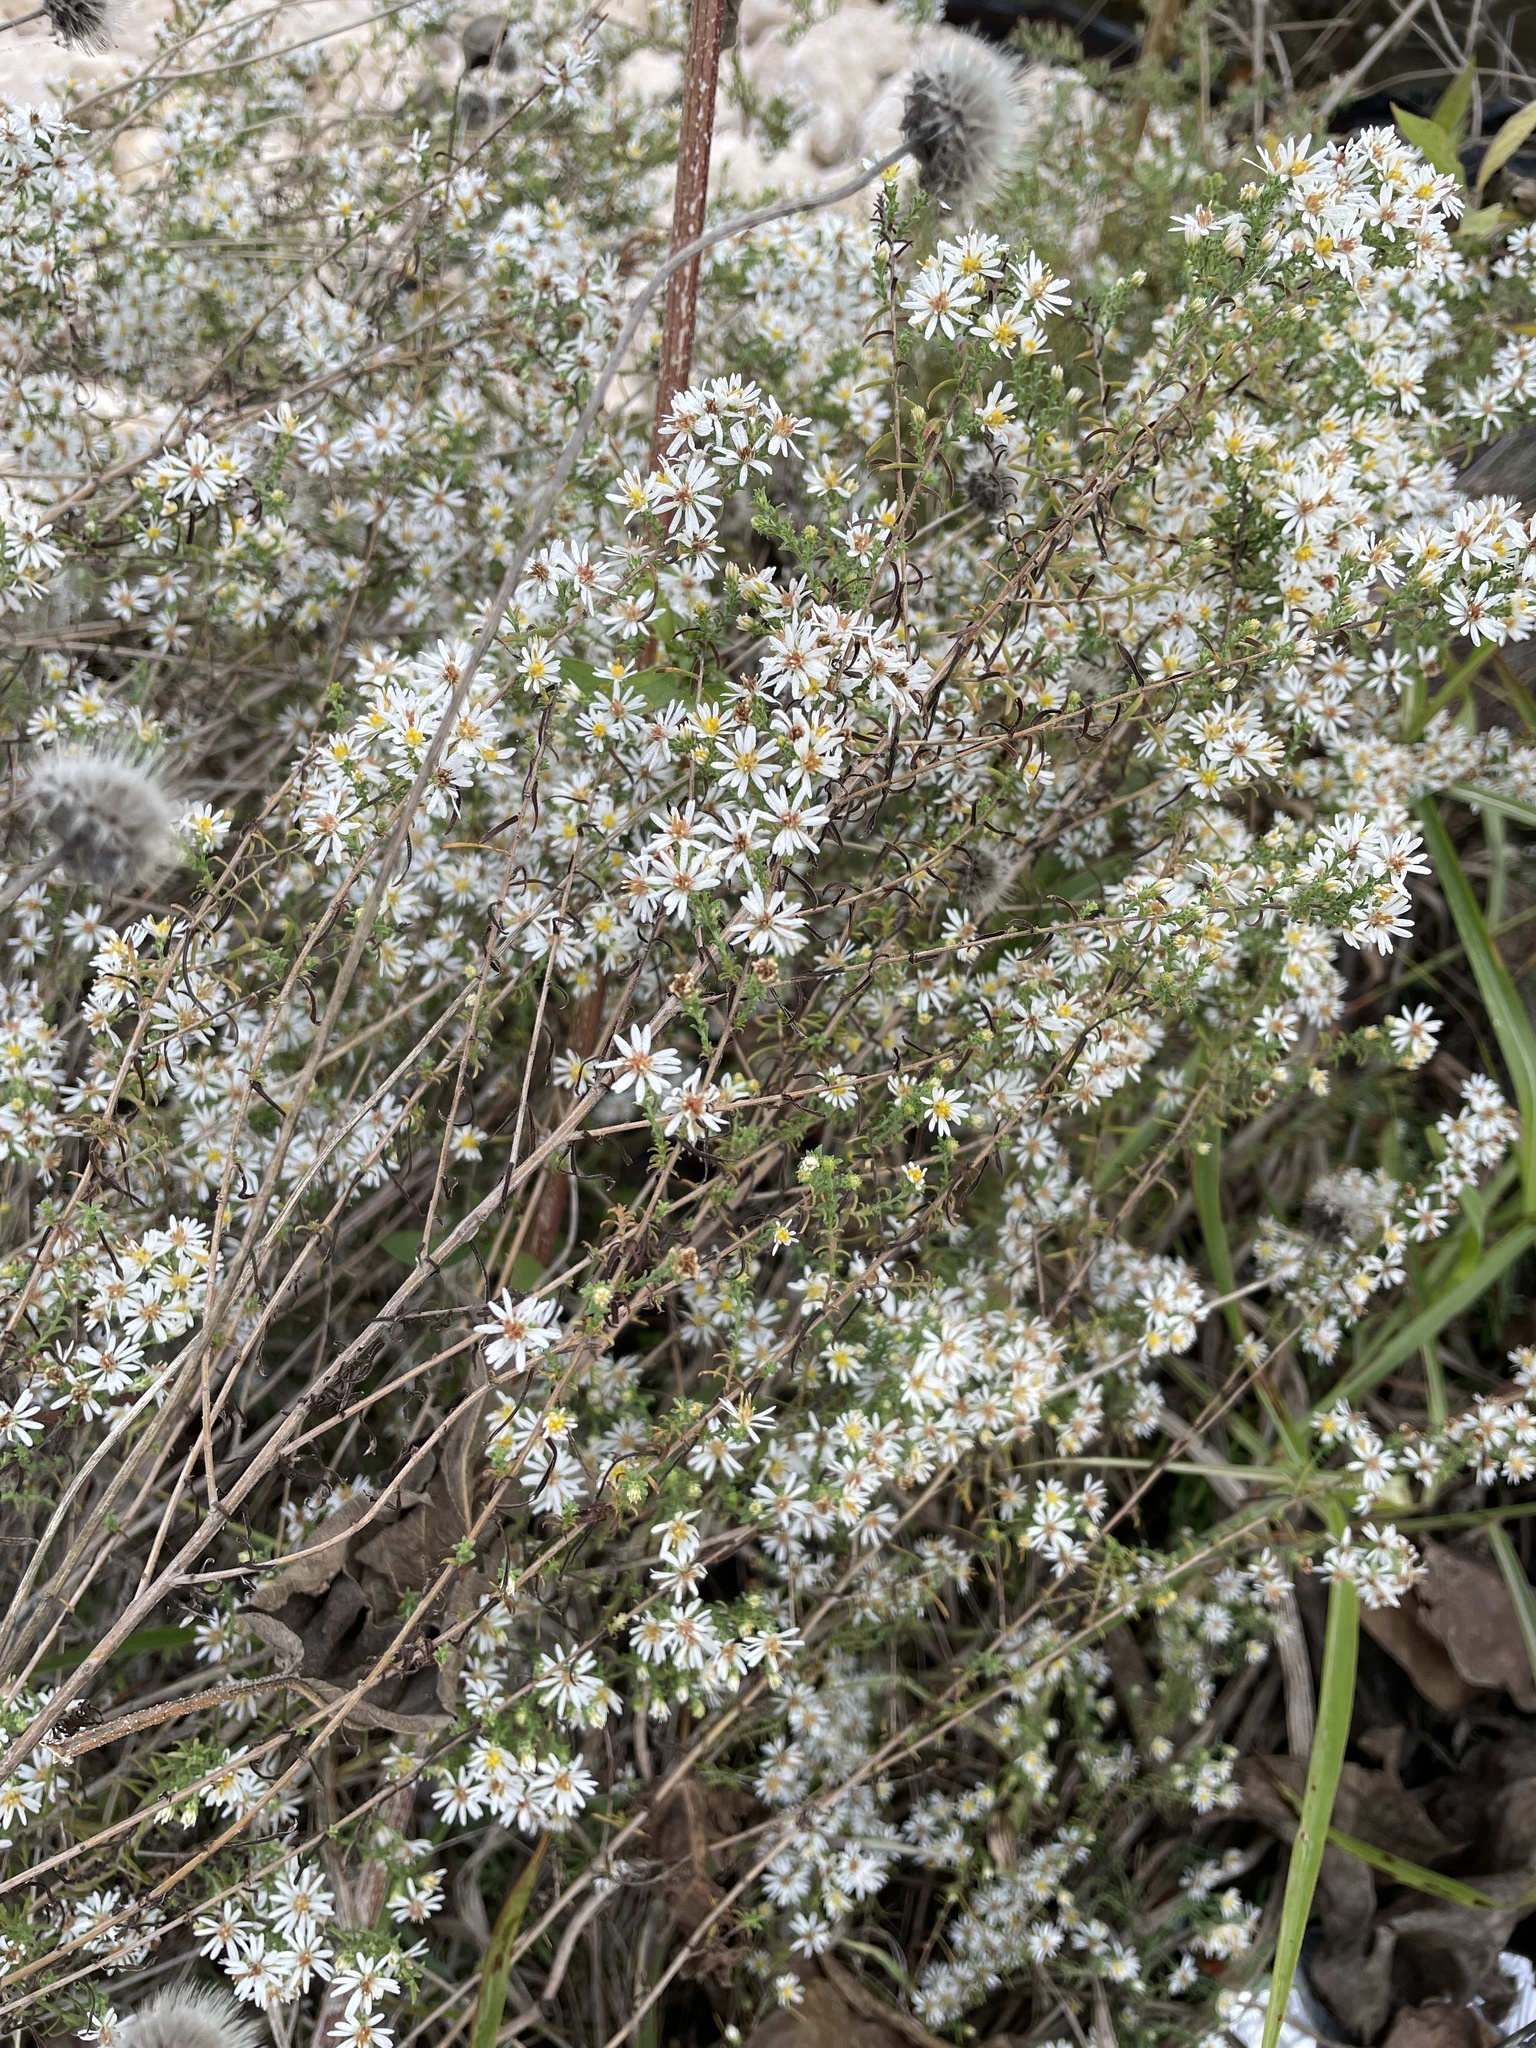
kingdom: Plantae
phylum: Tracheophyta
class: Magnoliopsida
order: Asterales
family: Asteraceae
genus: Symphyotrichum
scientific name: Symphyotrichum ericoides
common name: Heath aster
